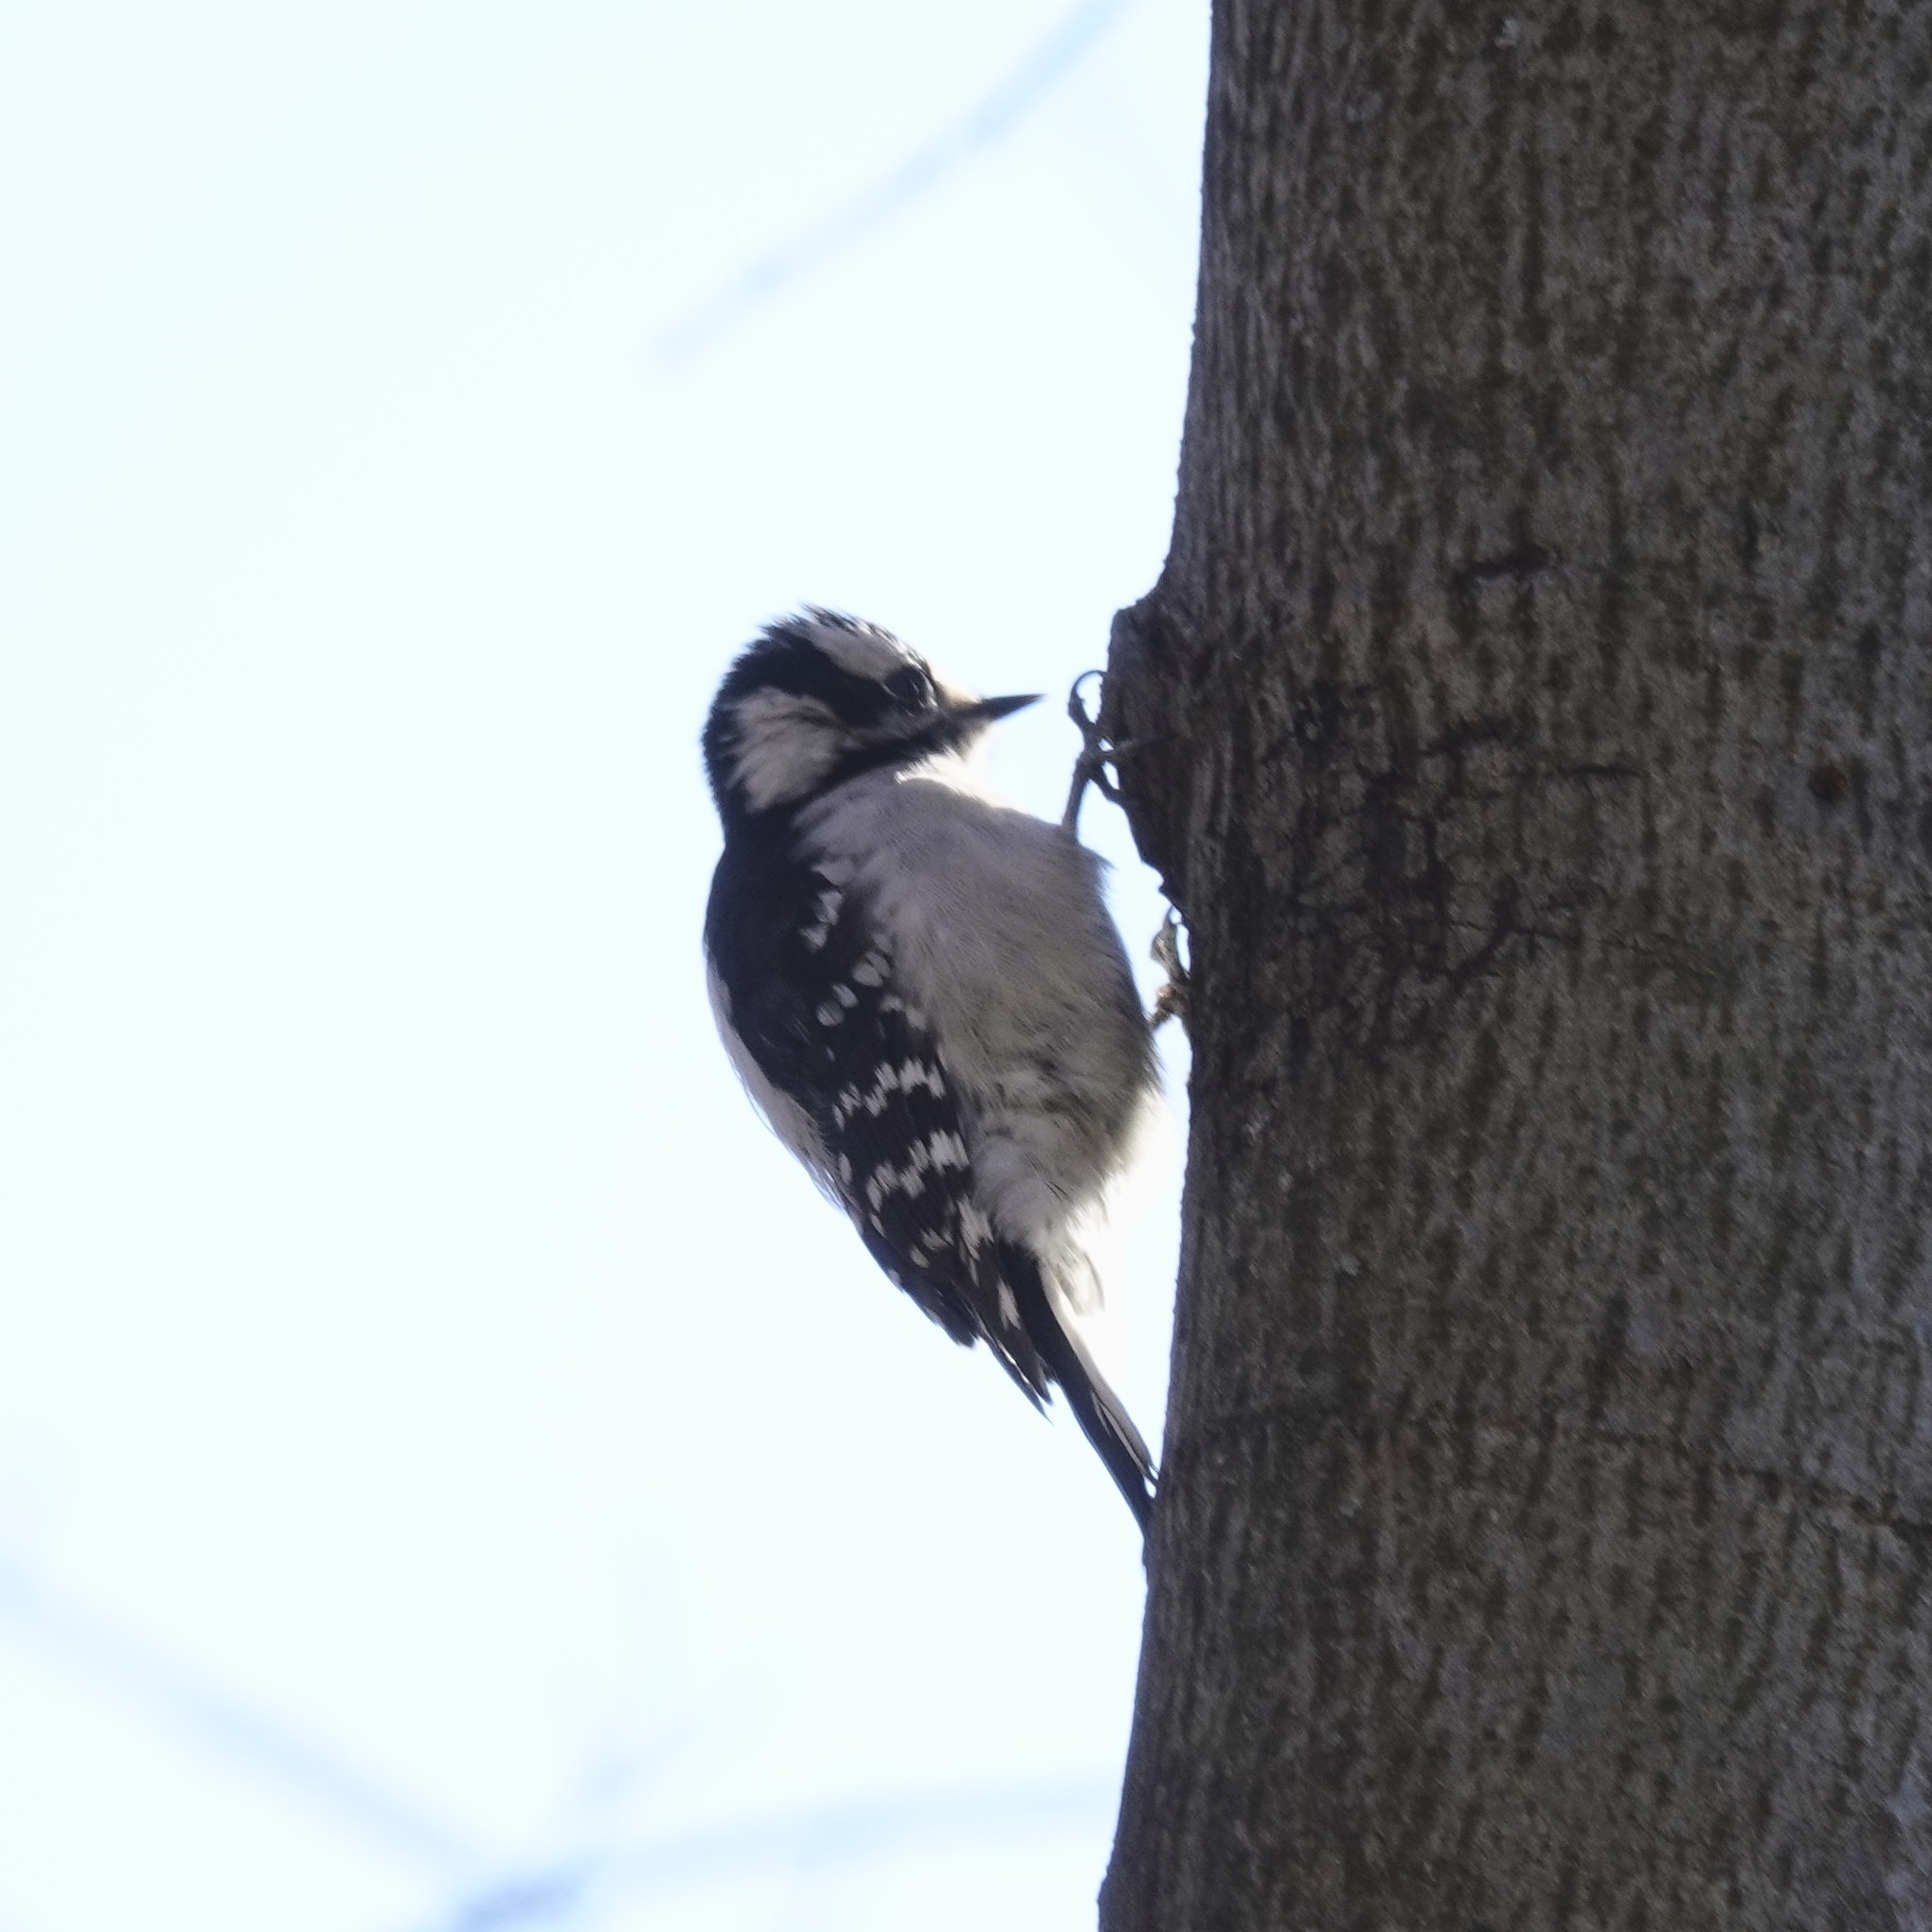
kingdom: Animalia
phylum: Chordata
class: Aves
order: Piciformes
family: Picidae
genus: Dryobates
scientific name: Dryobates pubescens
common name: Downy woodpecker
